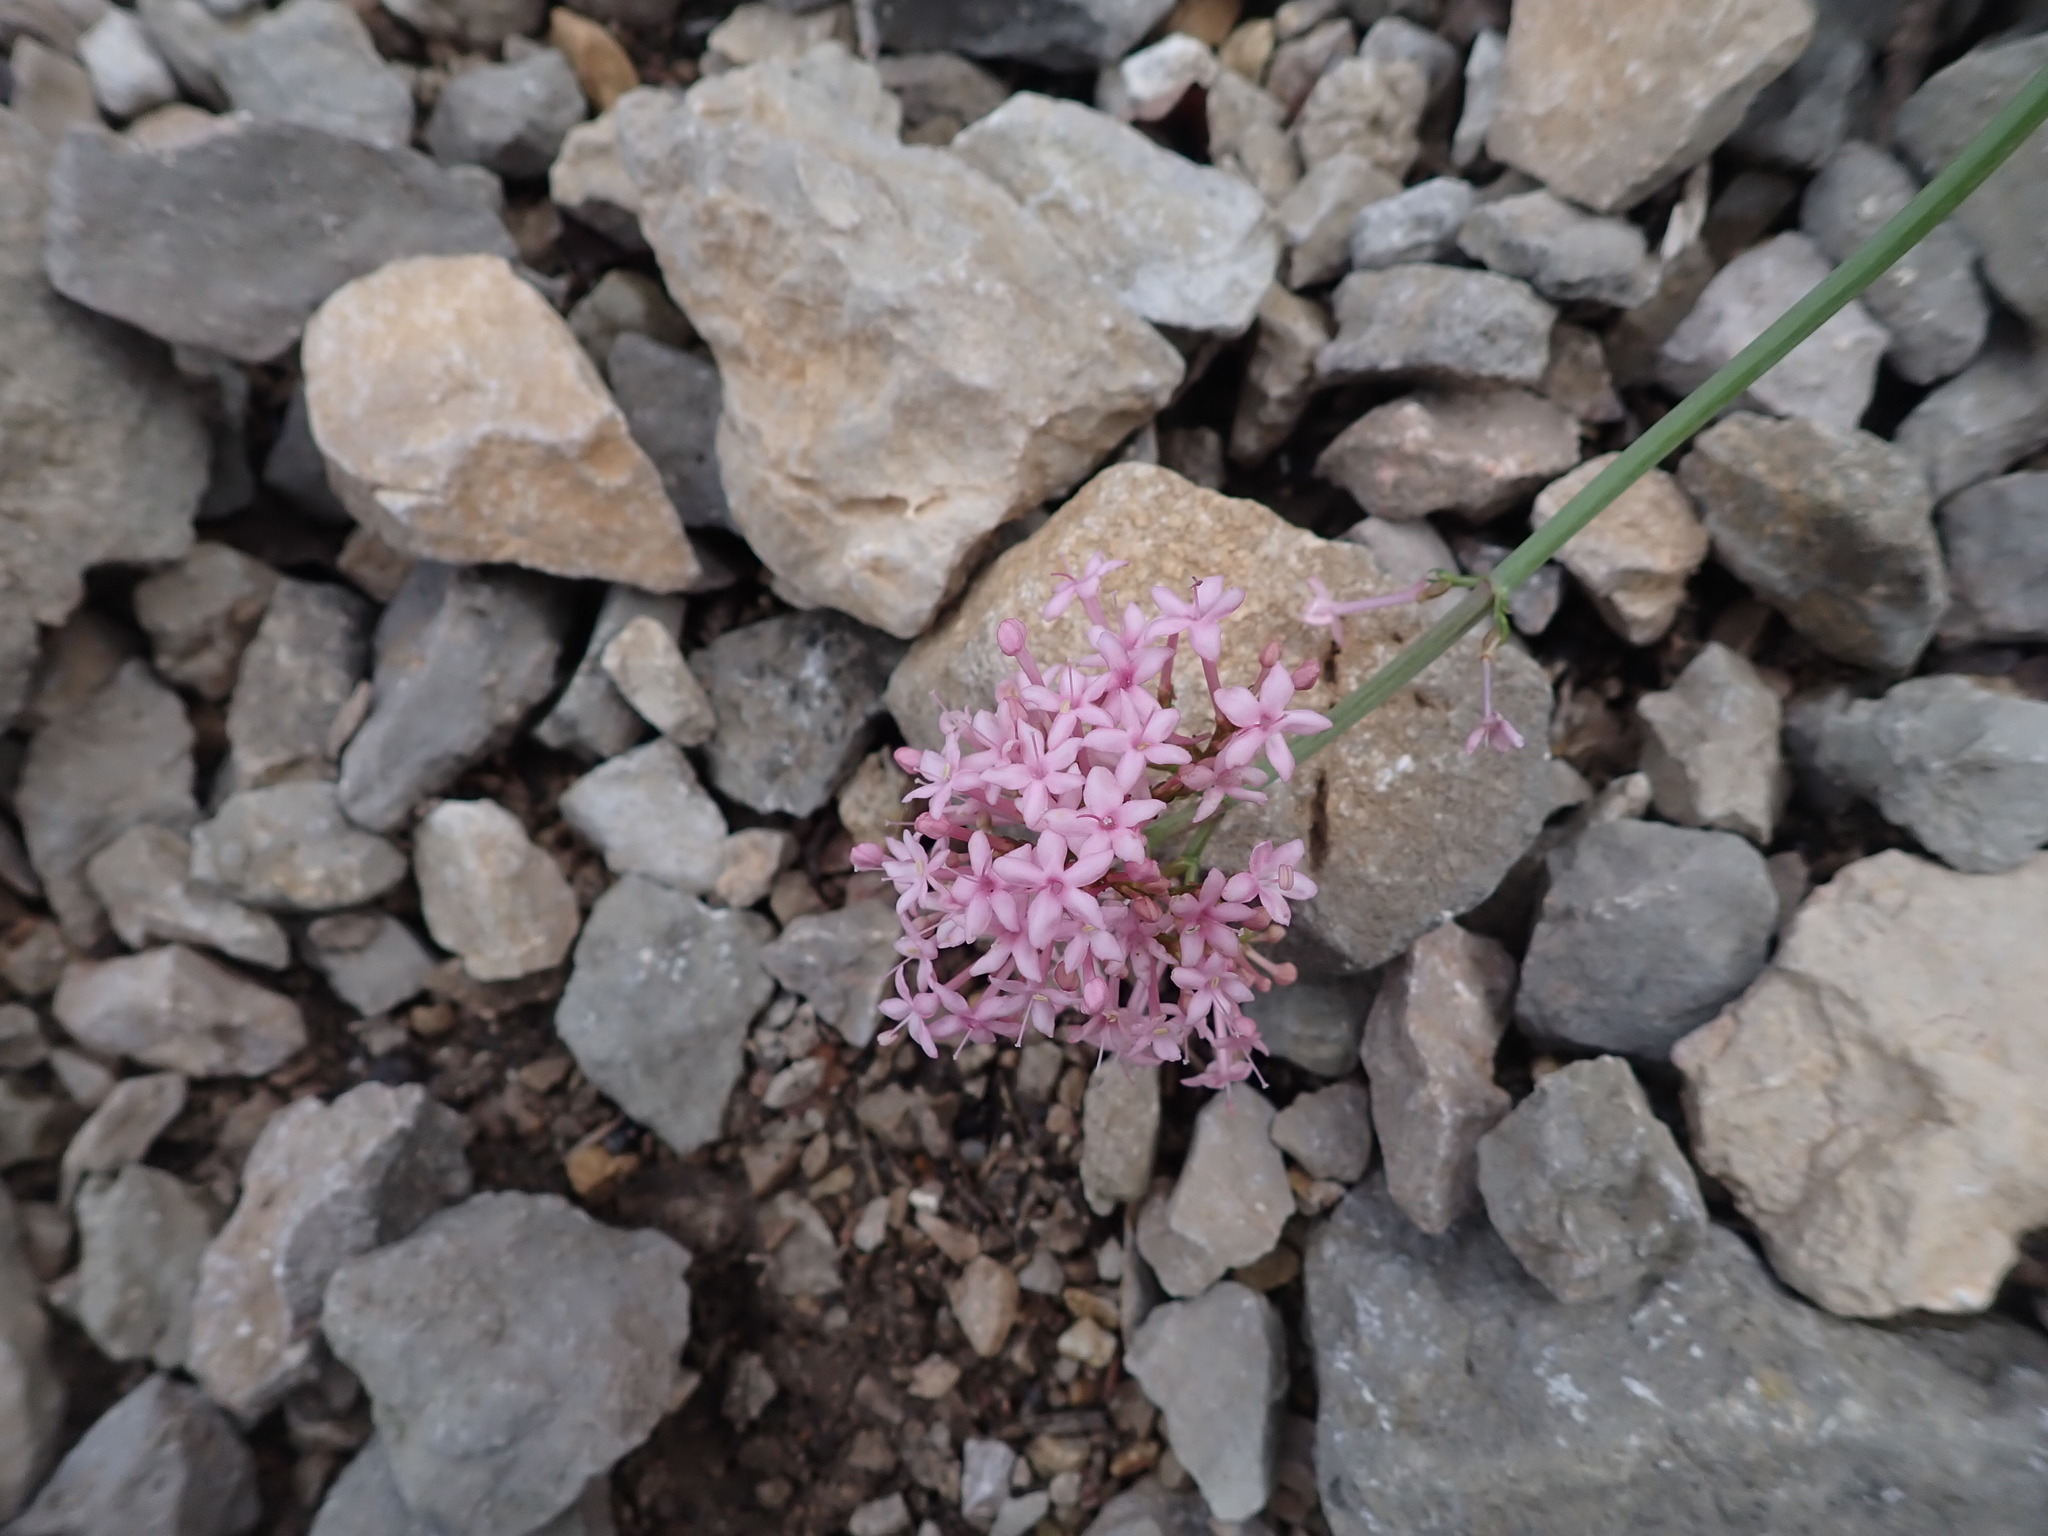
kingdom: Plantae
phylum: Tracheophyta
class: Magnoliopsida
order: Dipsacales
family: Caprifoliaceae
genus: Centranthus
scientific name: Centranthus lecoqii
